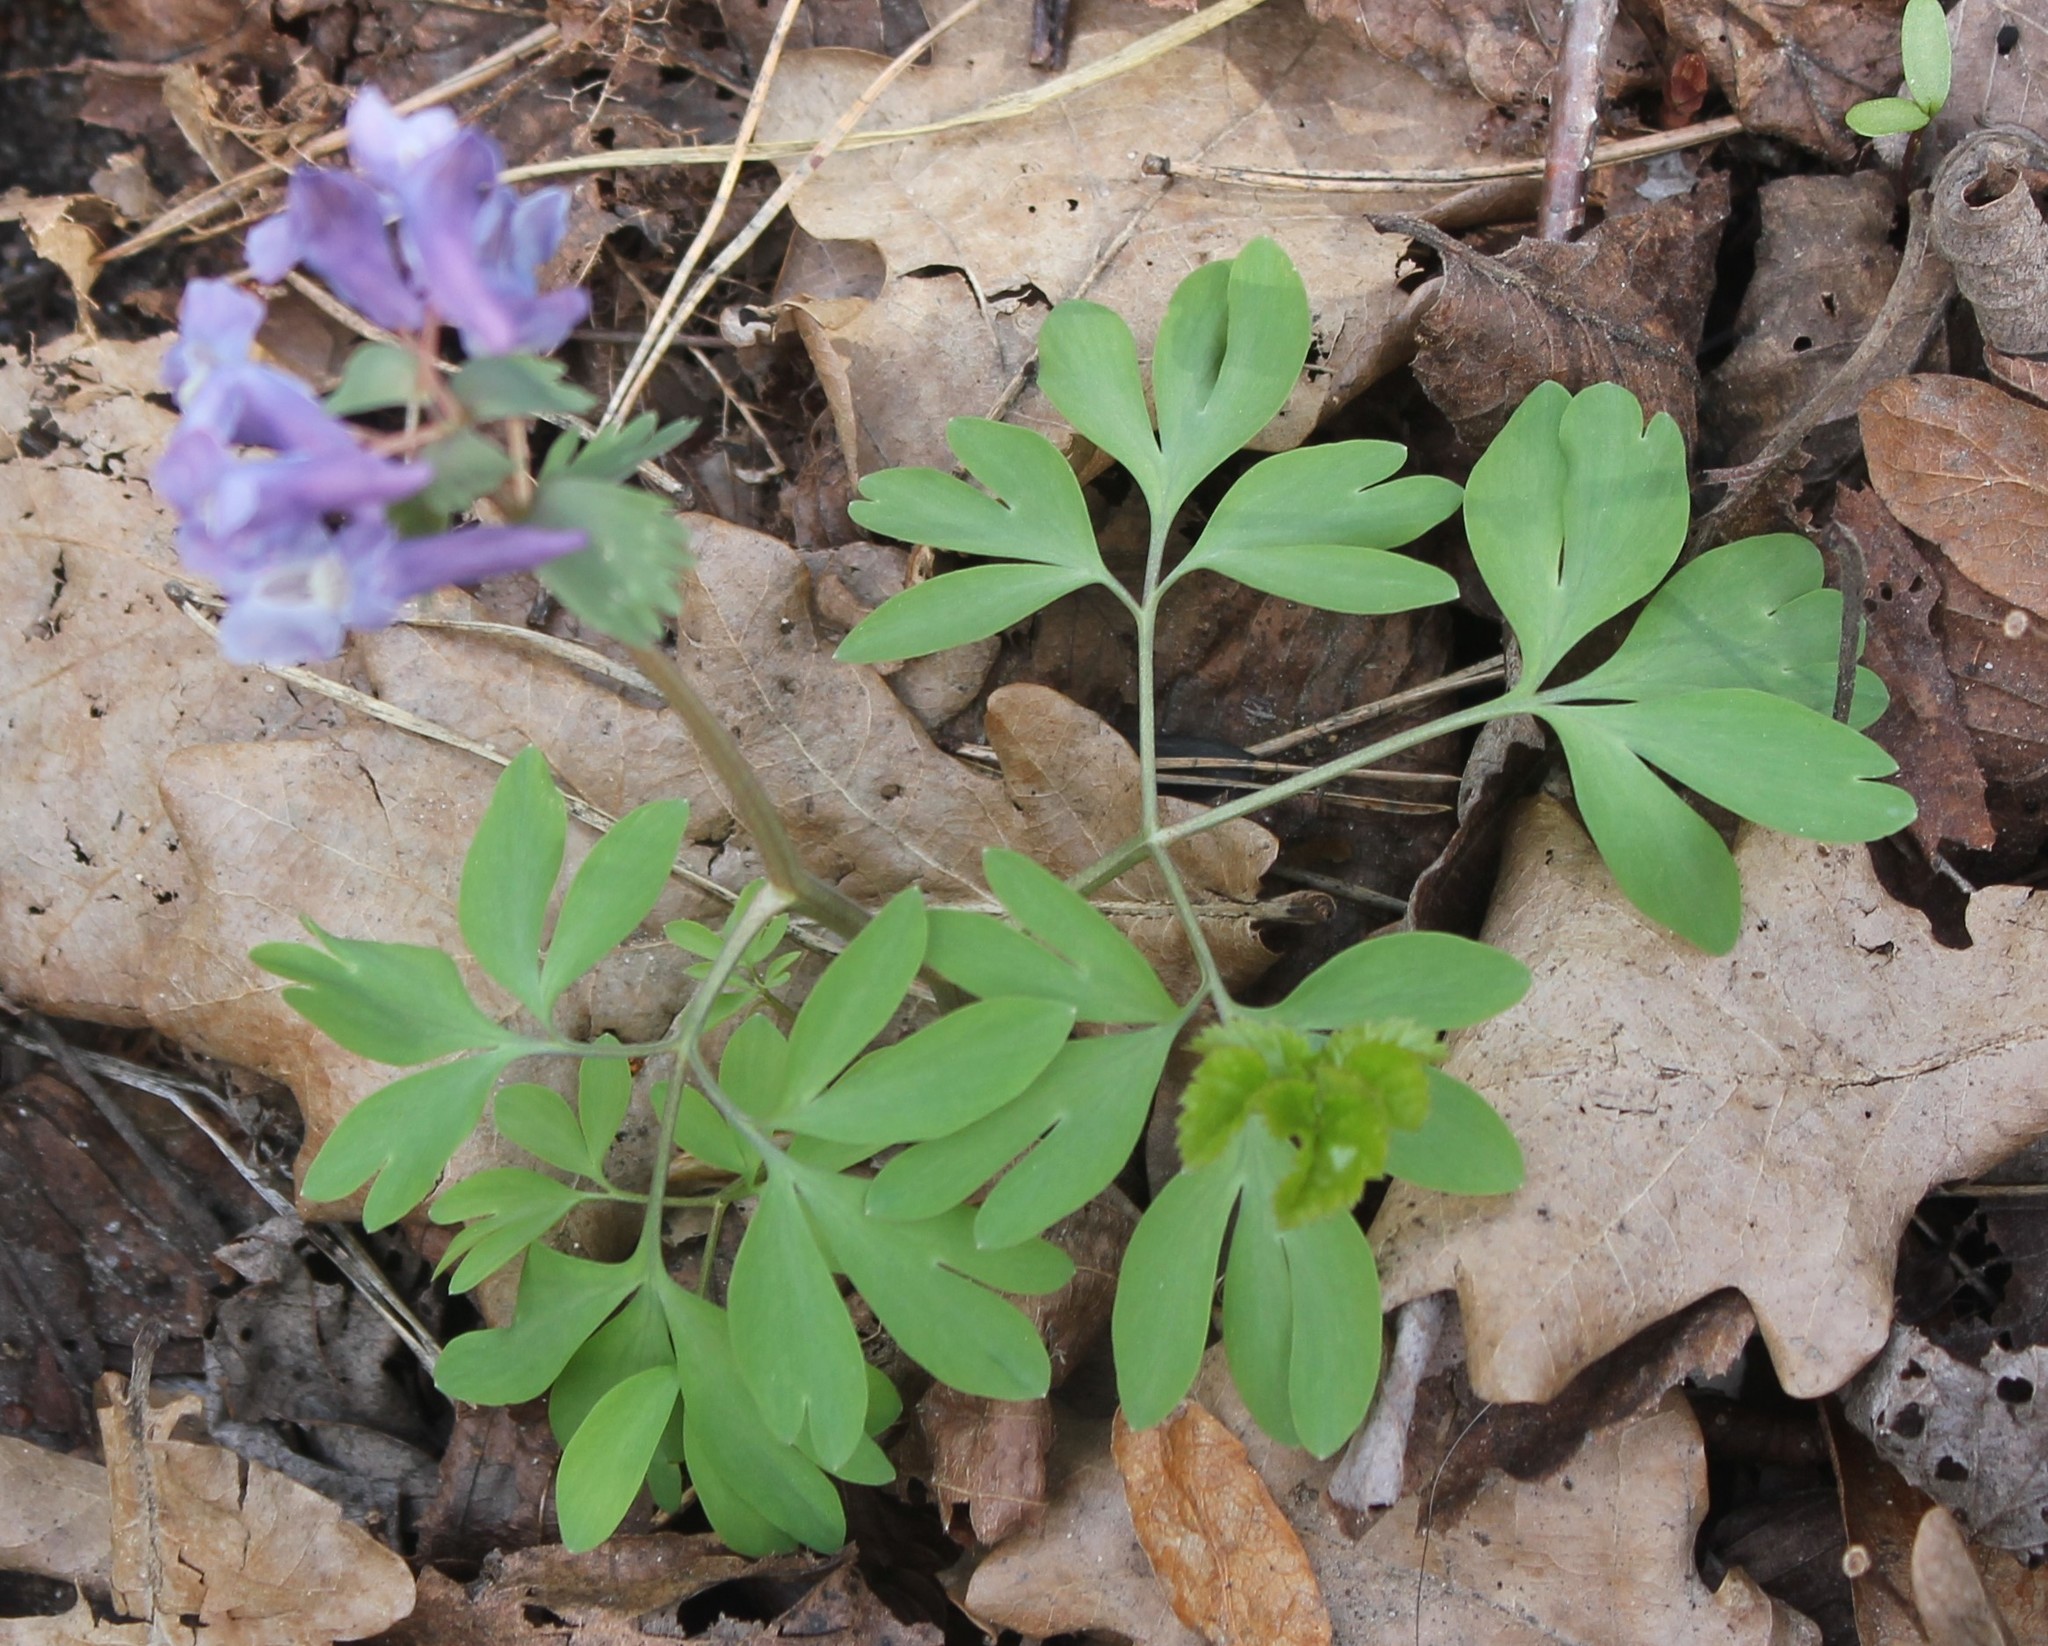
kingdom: Plantae
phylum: Tracheophyta
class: Magnoliopsida
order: Ranunculales
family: Papaveraceae
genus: Corydalis
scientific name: Corydalis solida
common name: Bird-in-a-bush
